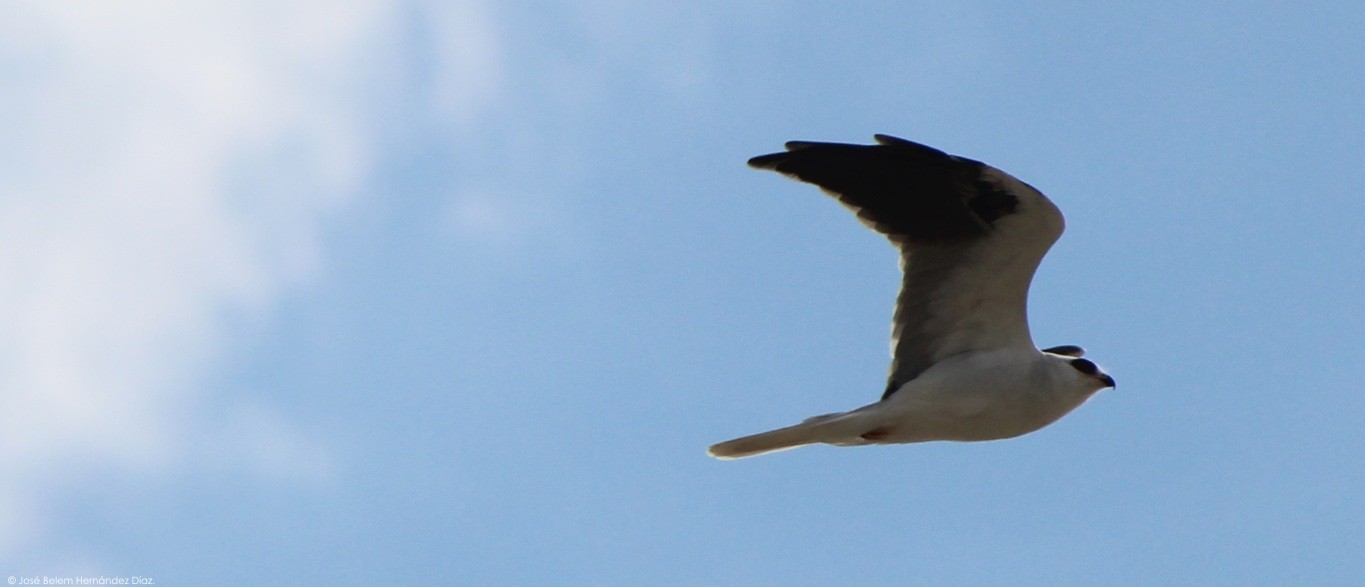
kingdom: Animalia
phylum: Chordata
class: Aves
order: Accipitriformes
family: Accipitridae
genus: Elanus
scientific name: Elanus leucurus
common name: White-tailed kite
